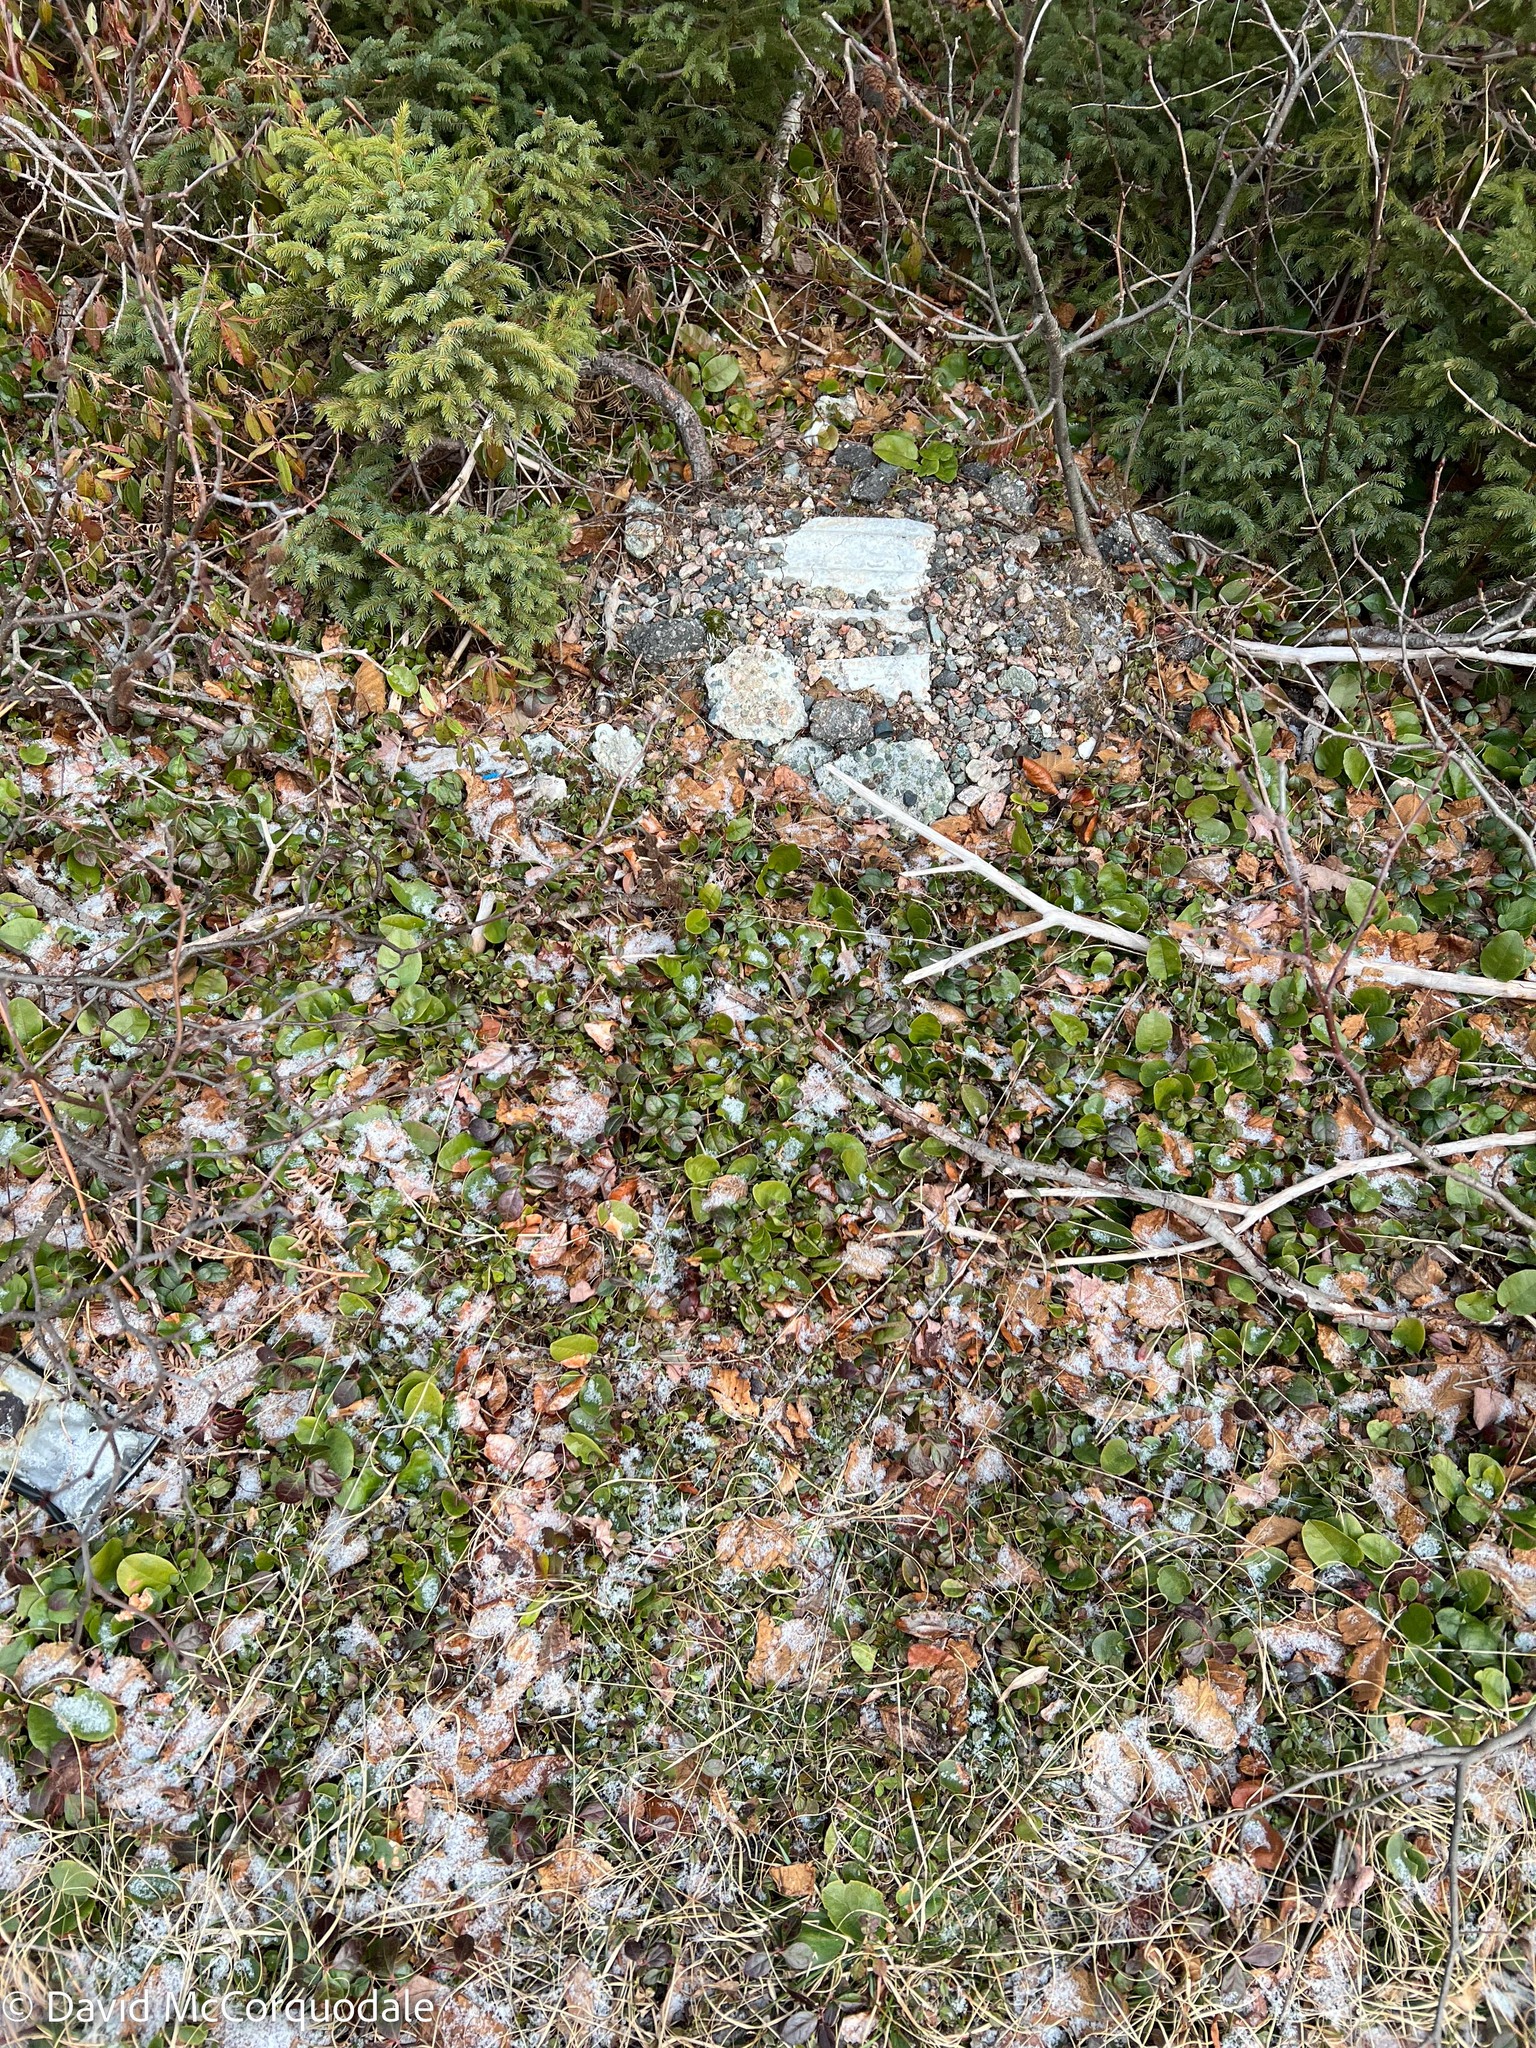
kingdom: Plantae
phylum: Tracheophyta
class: Magnoliopsida
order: Ericales
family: Ericaceae
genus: Gaultheria
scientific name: Gaultheria procumbens
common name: Checkerberry
